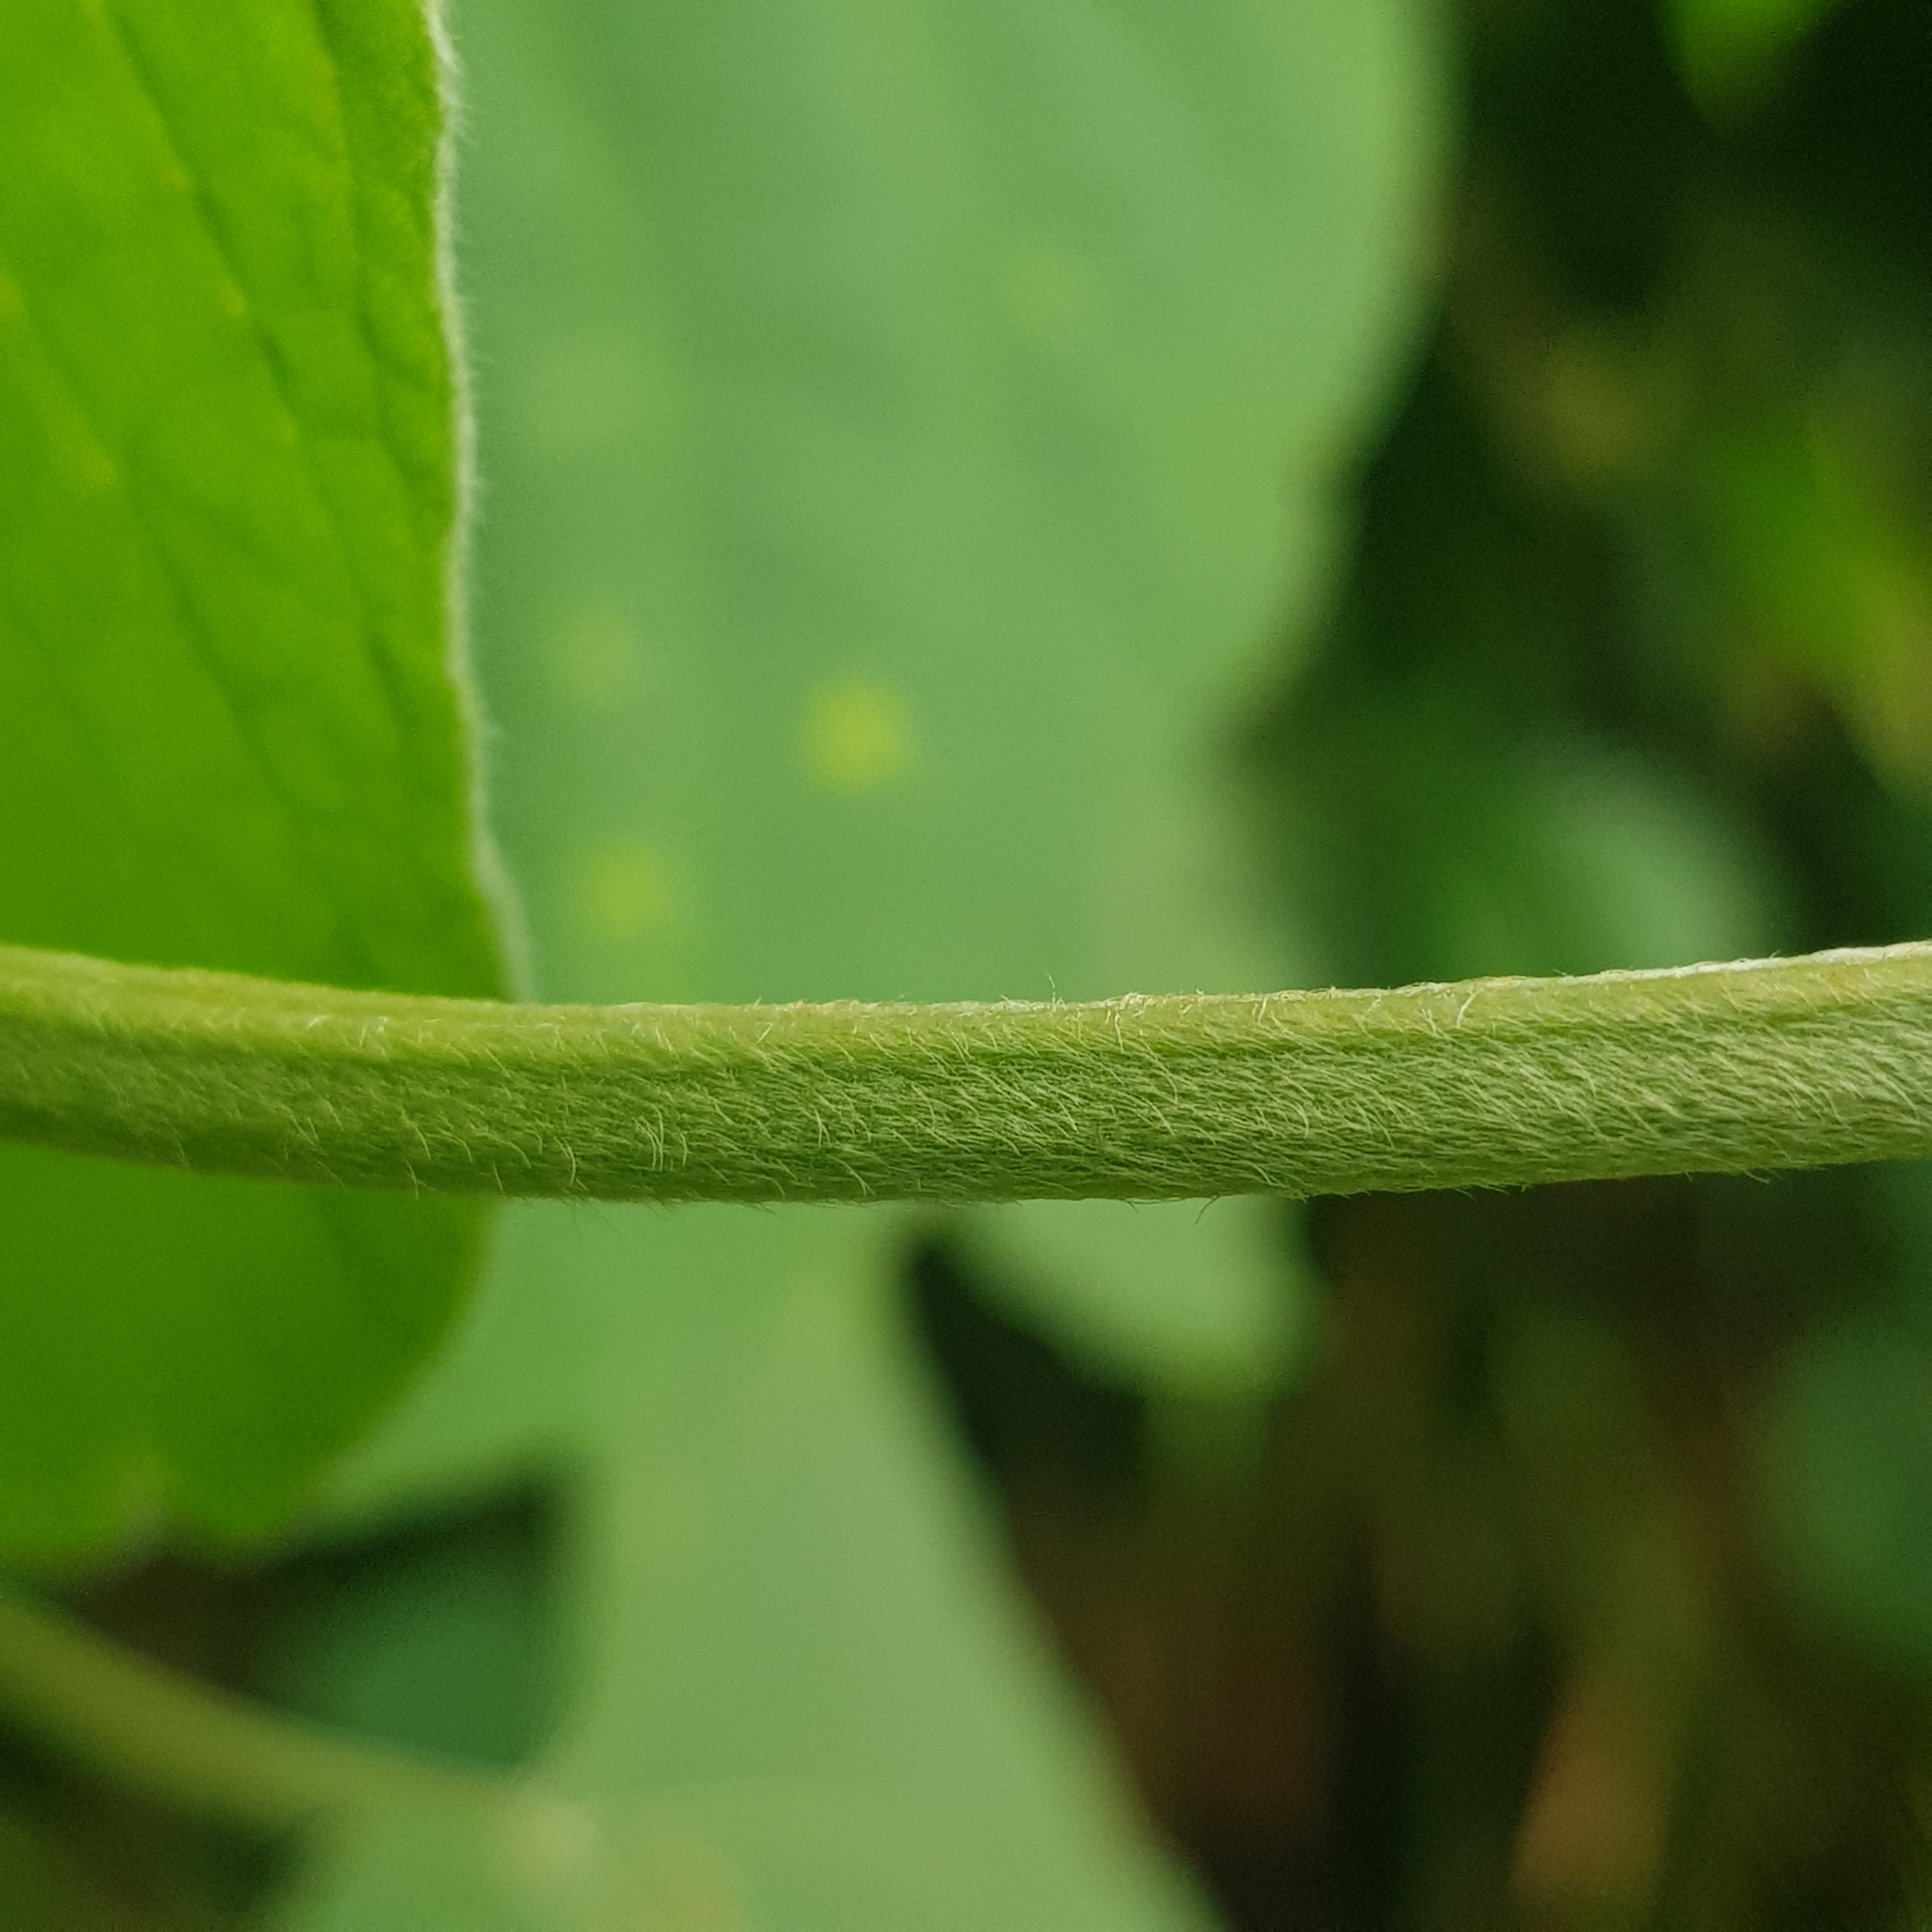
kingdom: Plantae
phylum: Tracheophyta
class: Magnoliopsida
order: Lamiales
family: Lamiaceae
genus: Clerodendrum
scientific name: Clerodendrum villosum
